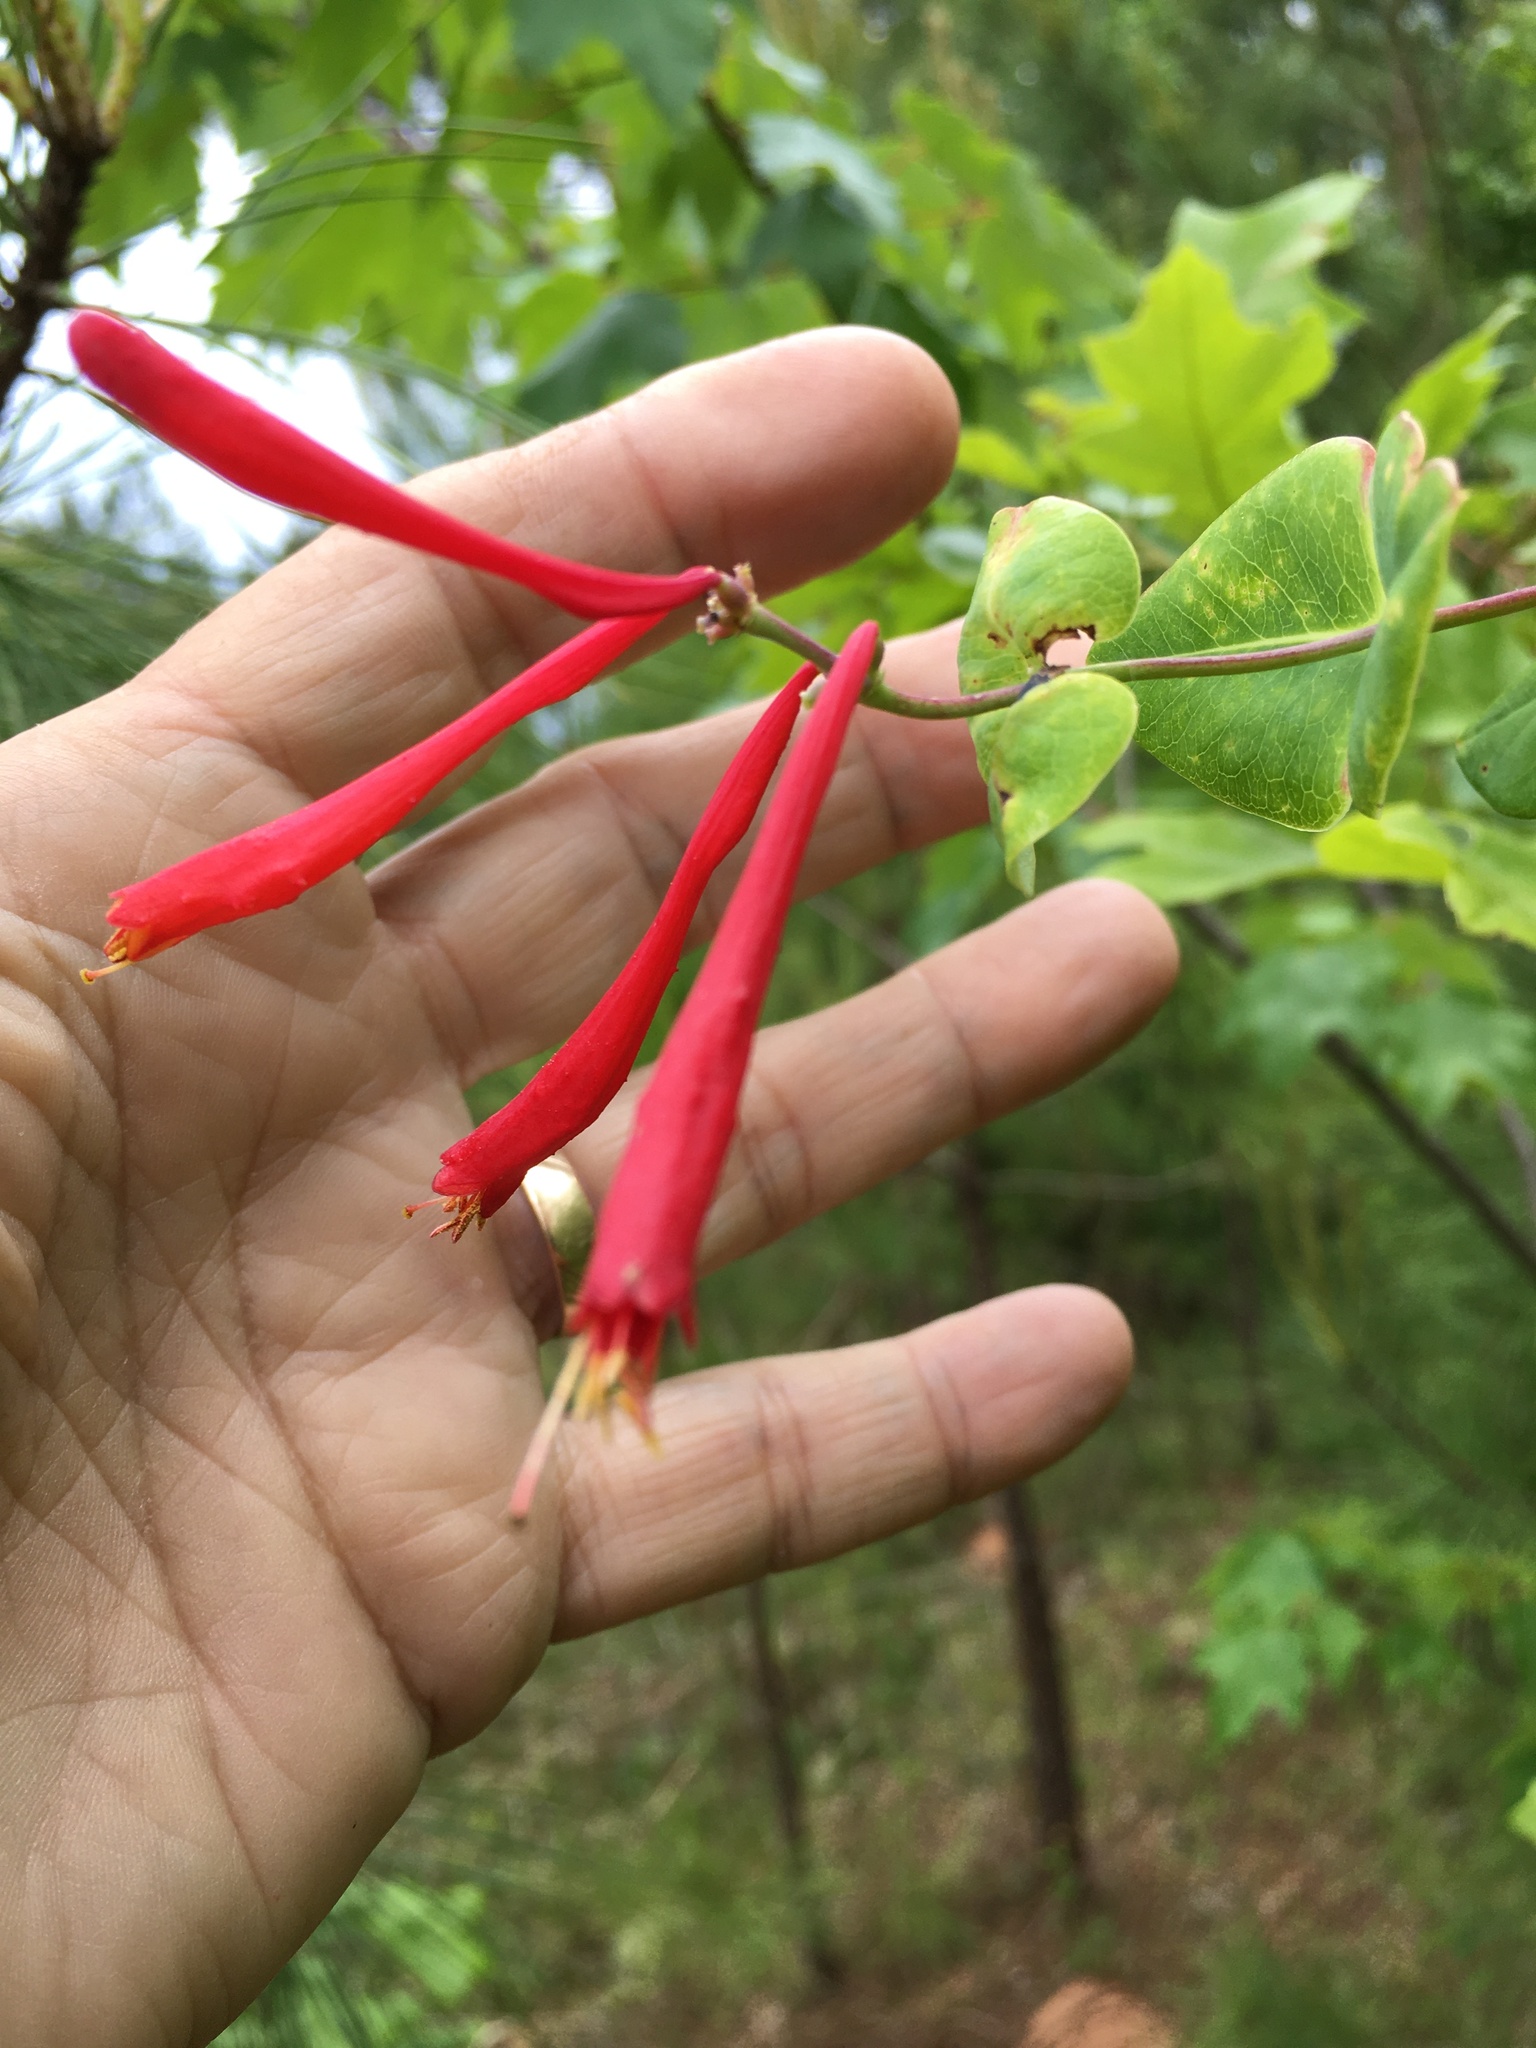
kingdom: Plantae
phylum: Tracheophyta
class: Magnoliopsida
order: Dipsacales
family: Caprifoliaceae
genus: Lonicera
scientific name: Lonicera sempervirens
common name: Coral honeysuckle
